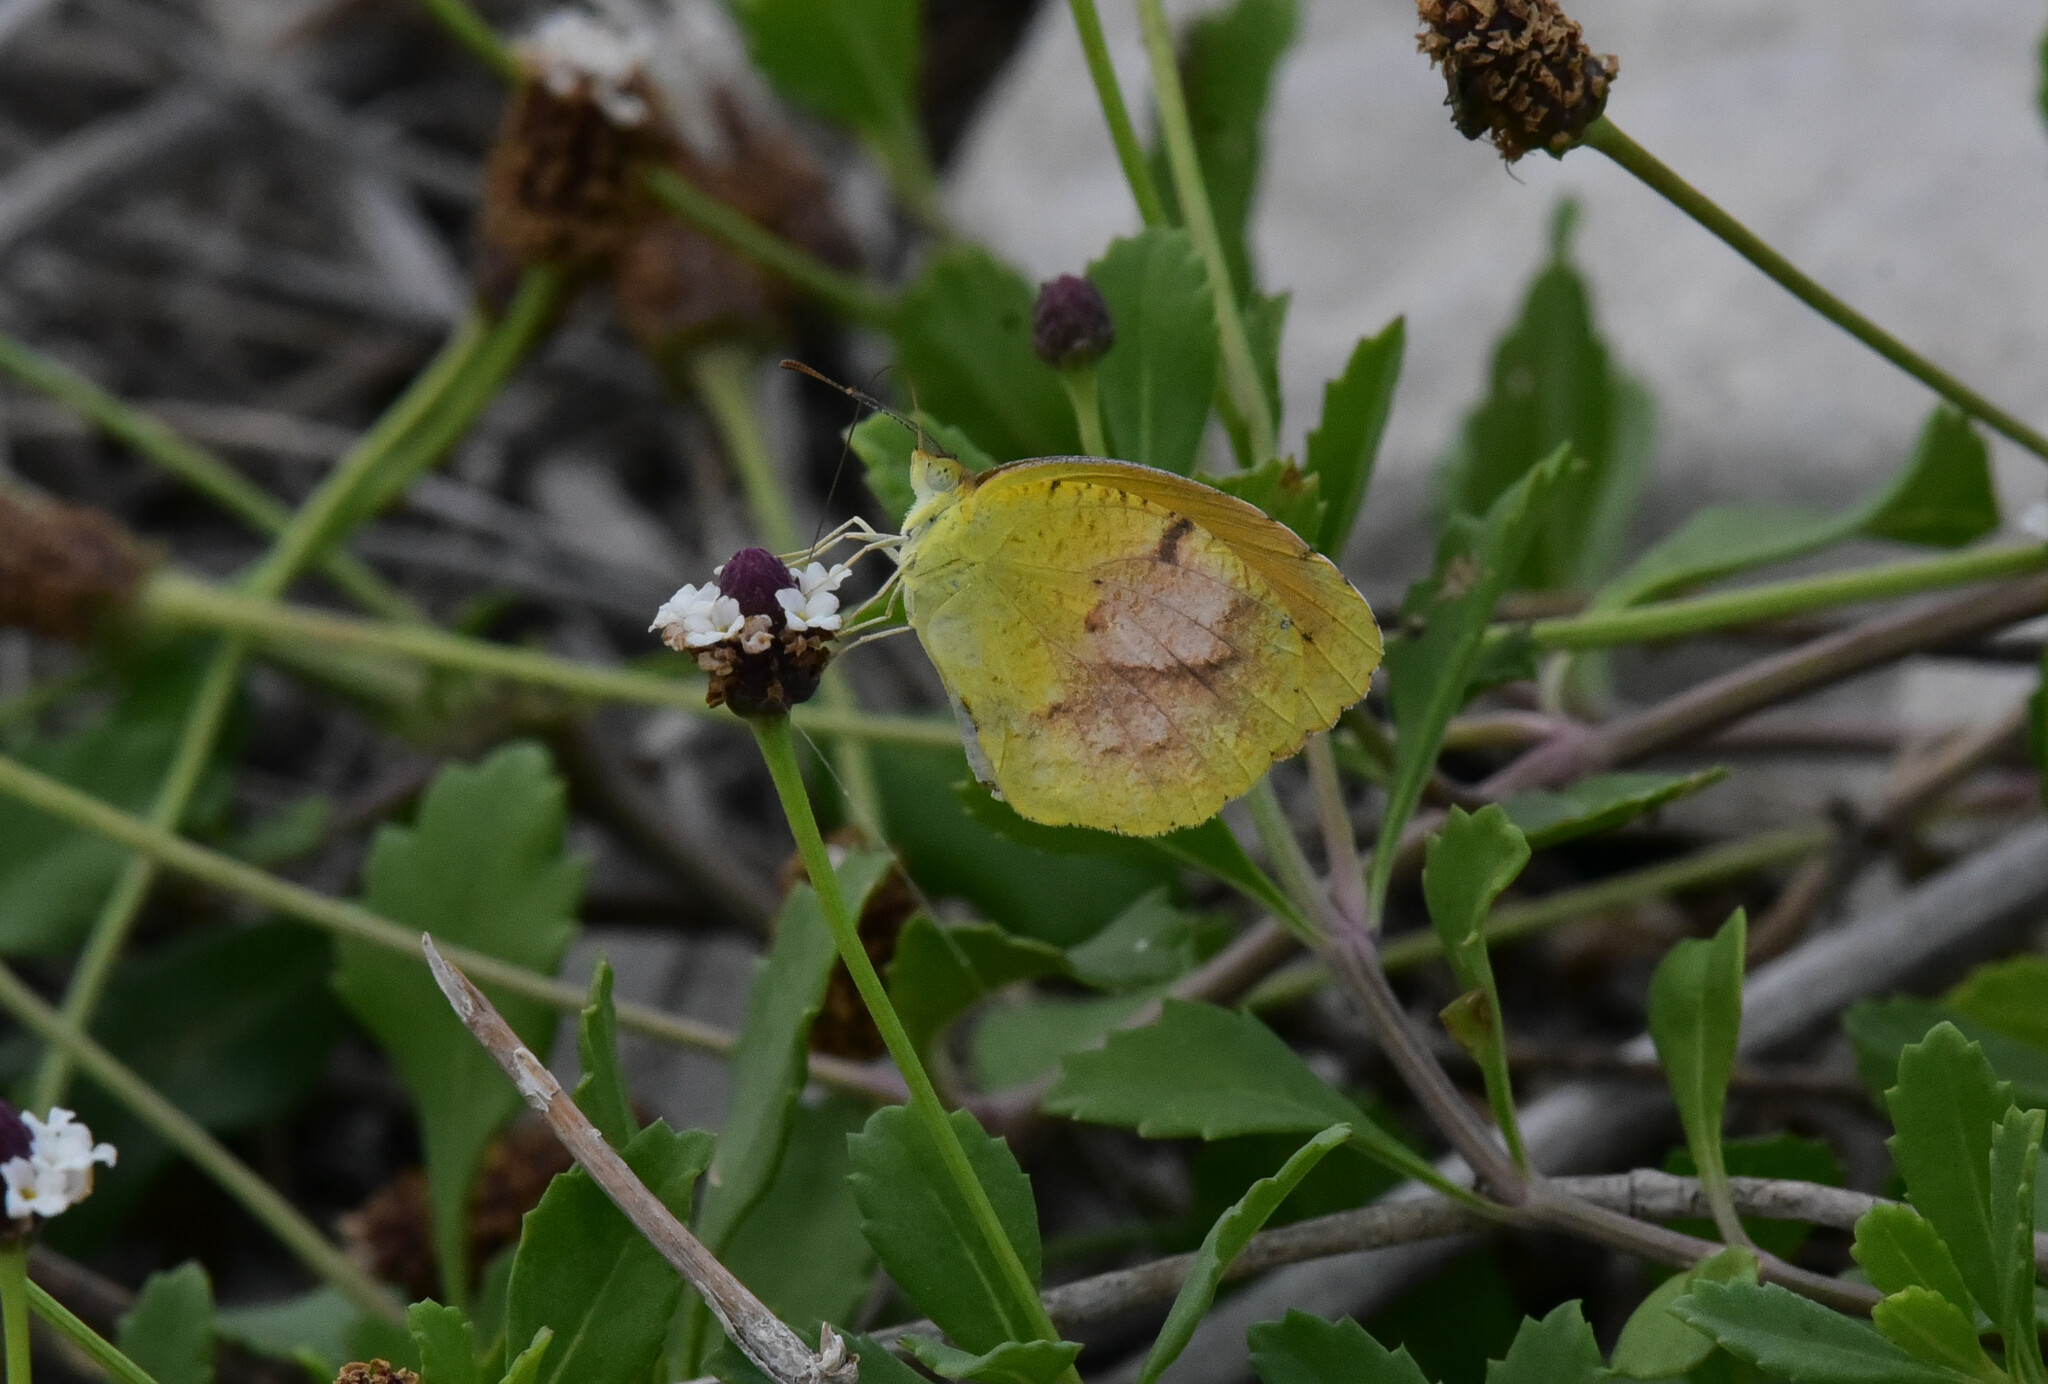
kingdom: Animalia
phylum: Arthropoda
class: Insecta
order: Lepidoptera
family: Pieridae
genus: Abaeis
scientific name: Abaeis nicippe
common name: Sleepy orange
